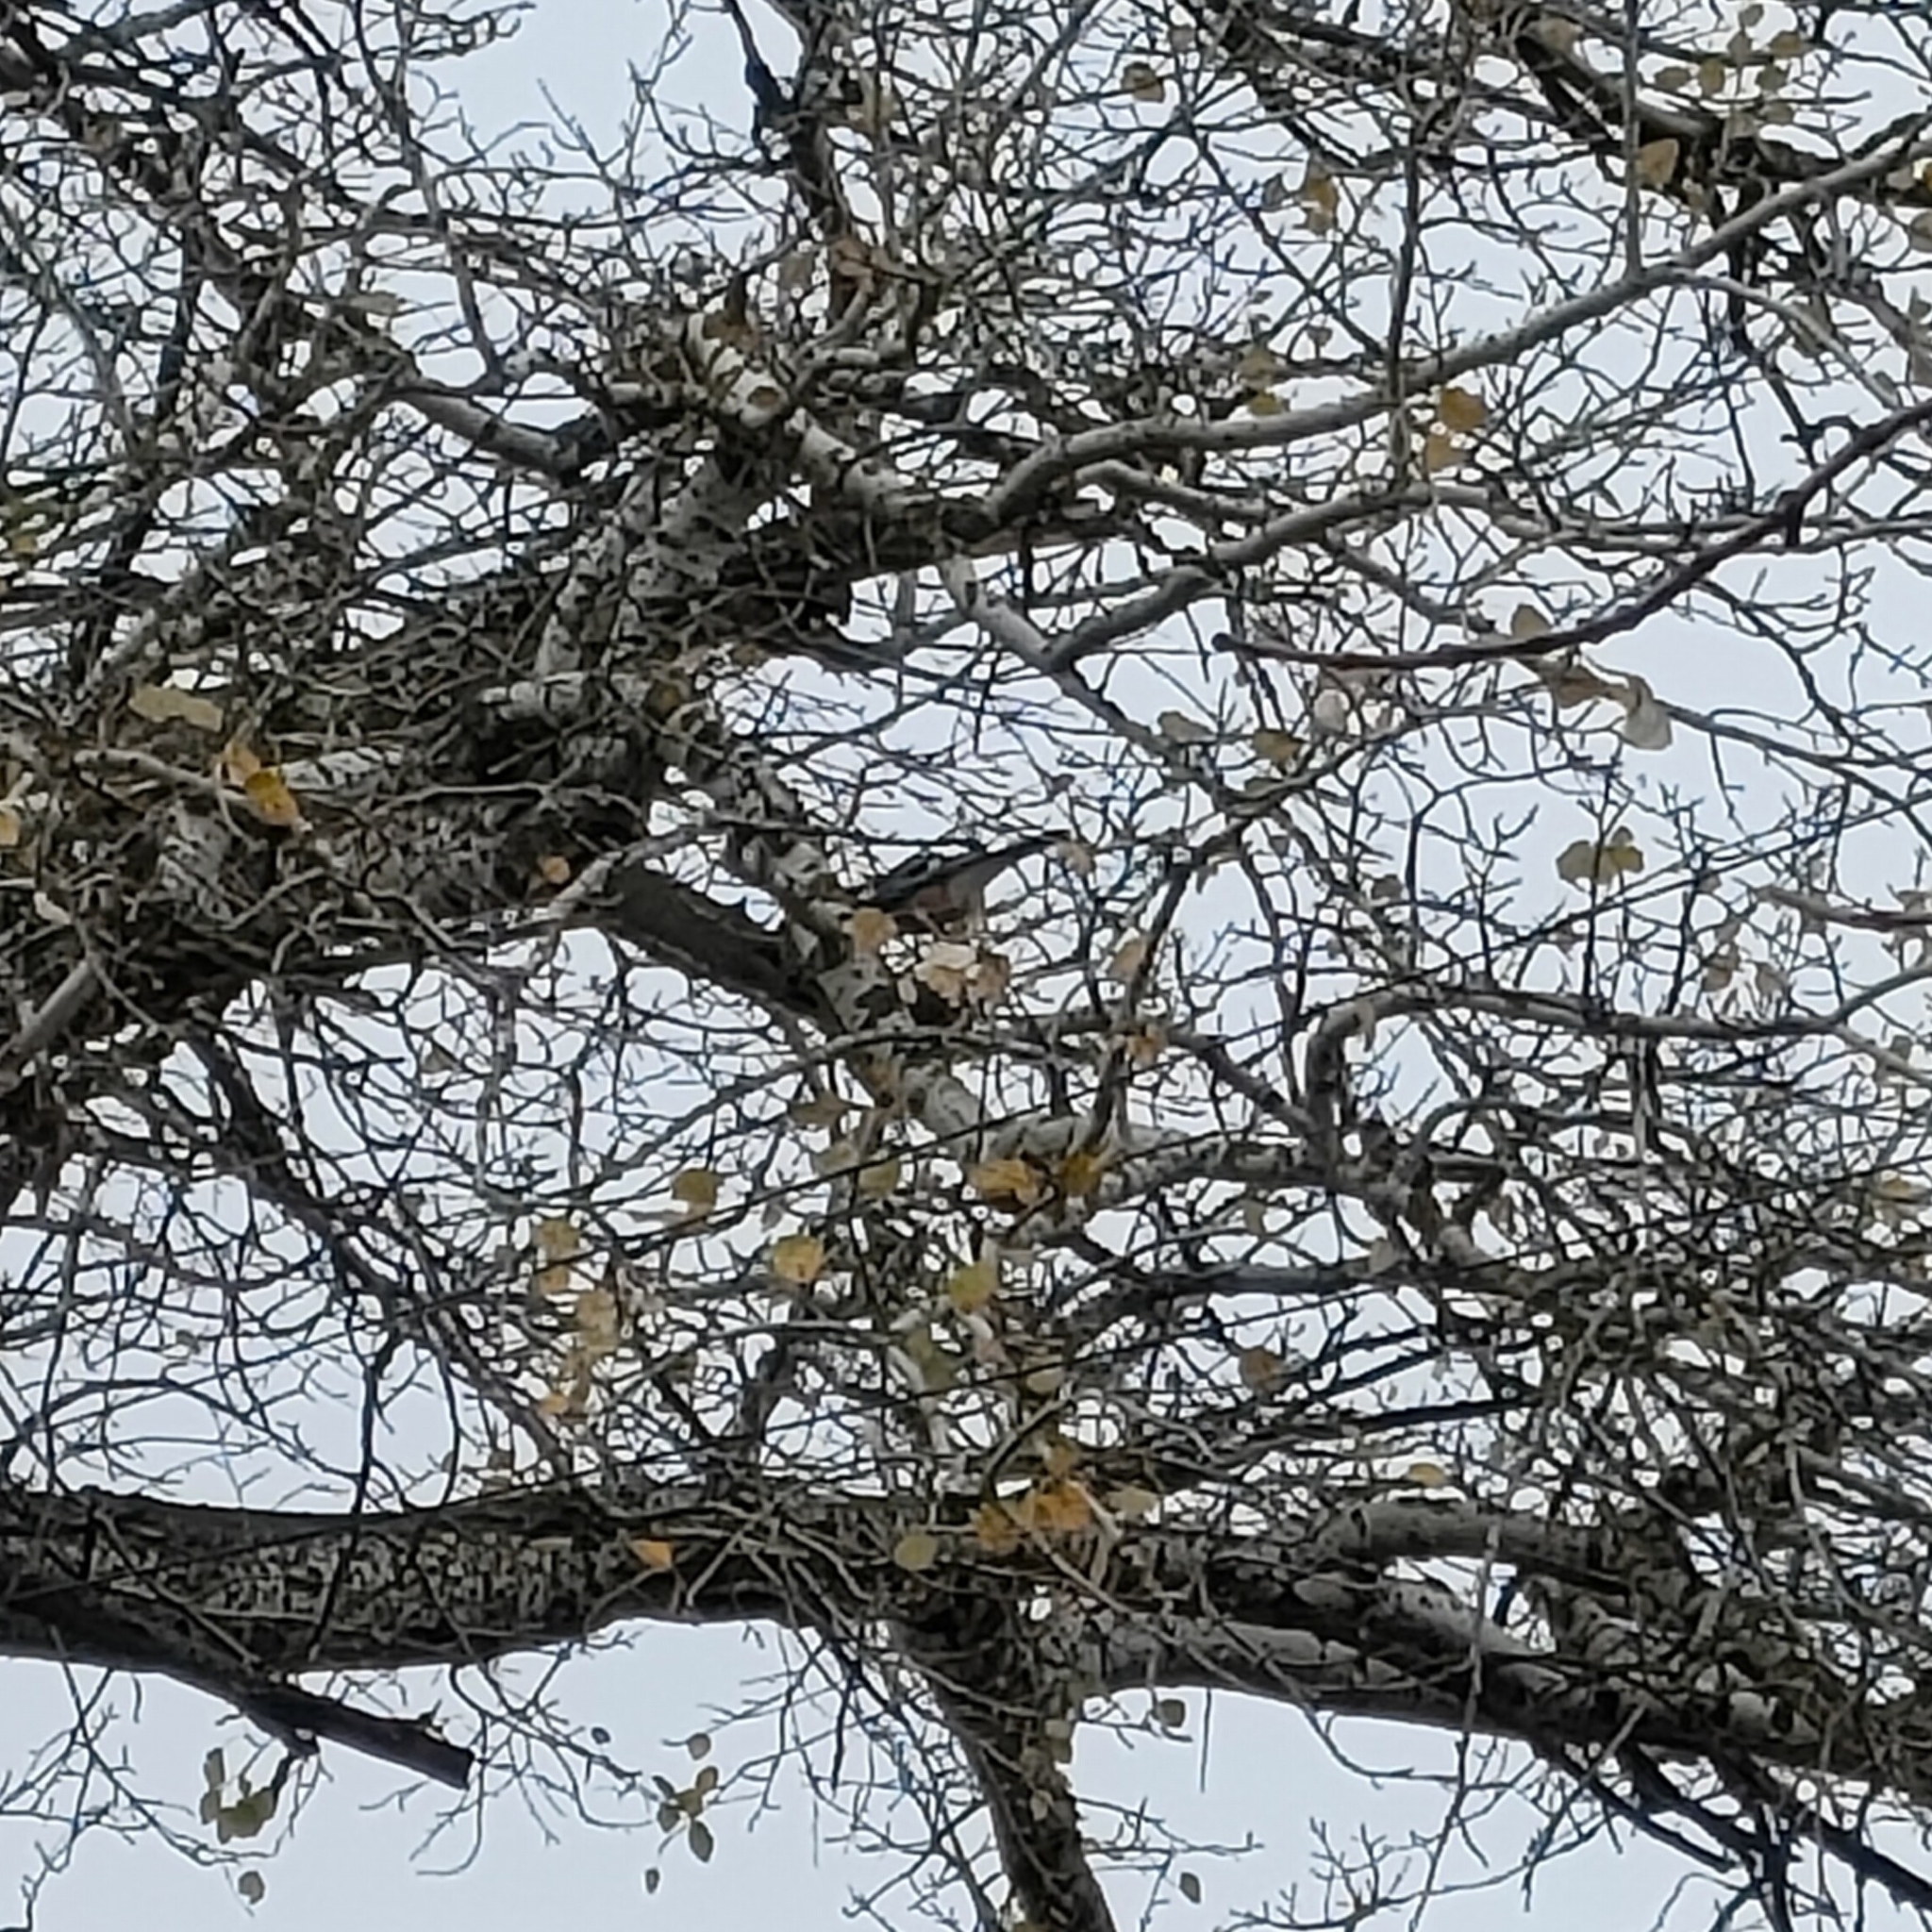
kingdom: Animalia
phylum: Chordata
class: Aves
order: Passeriformes
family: Corvidae
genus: Garrulus
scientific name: Garrulus glandarius
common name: Eurasian jay
